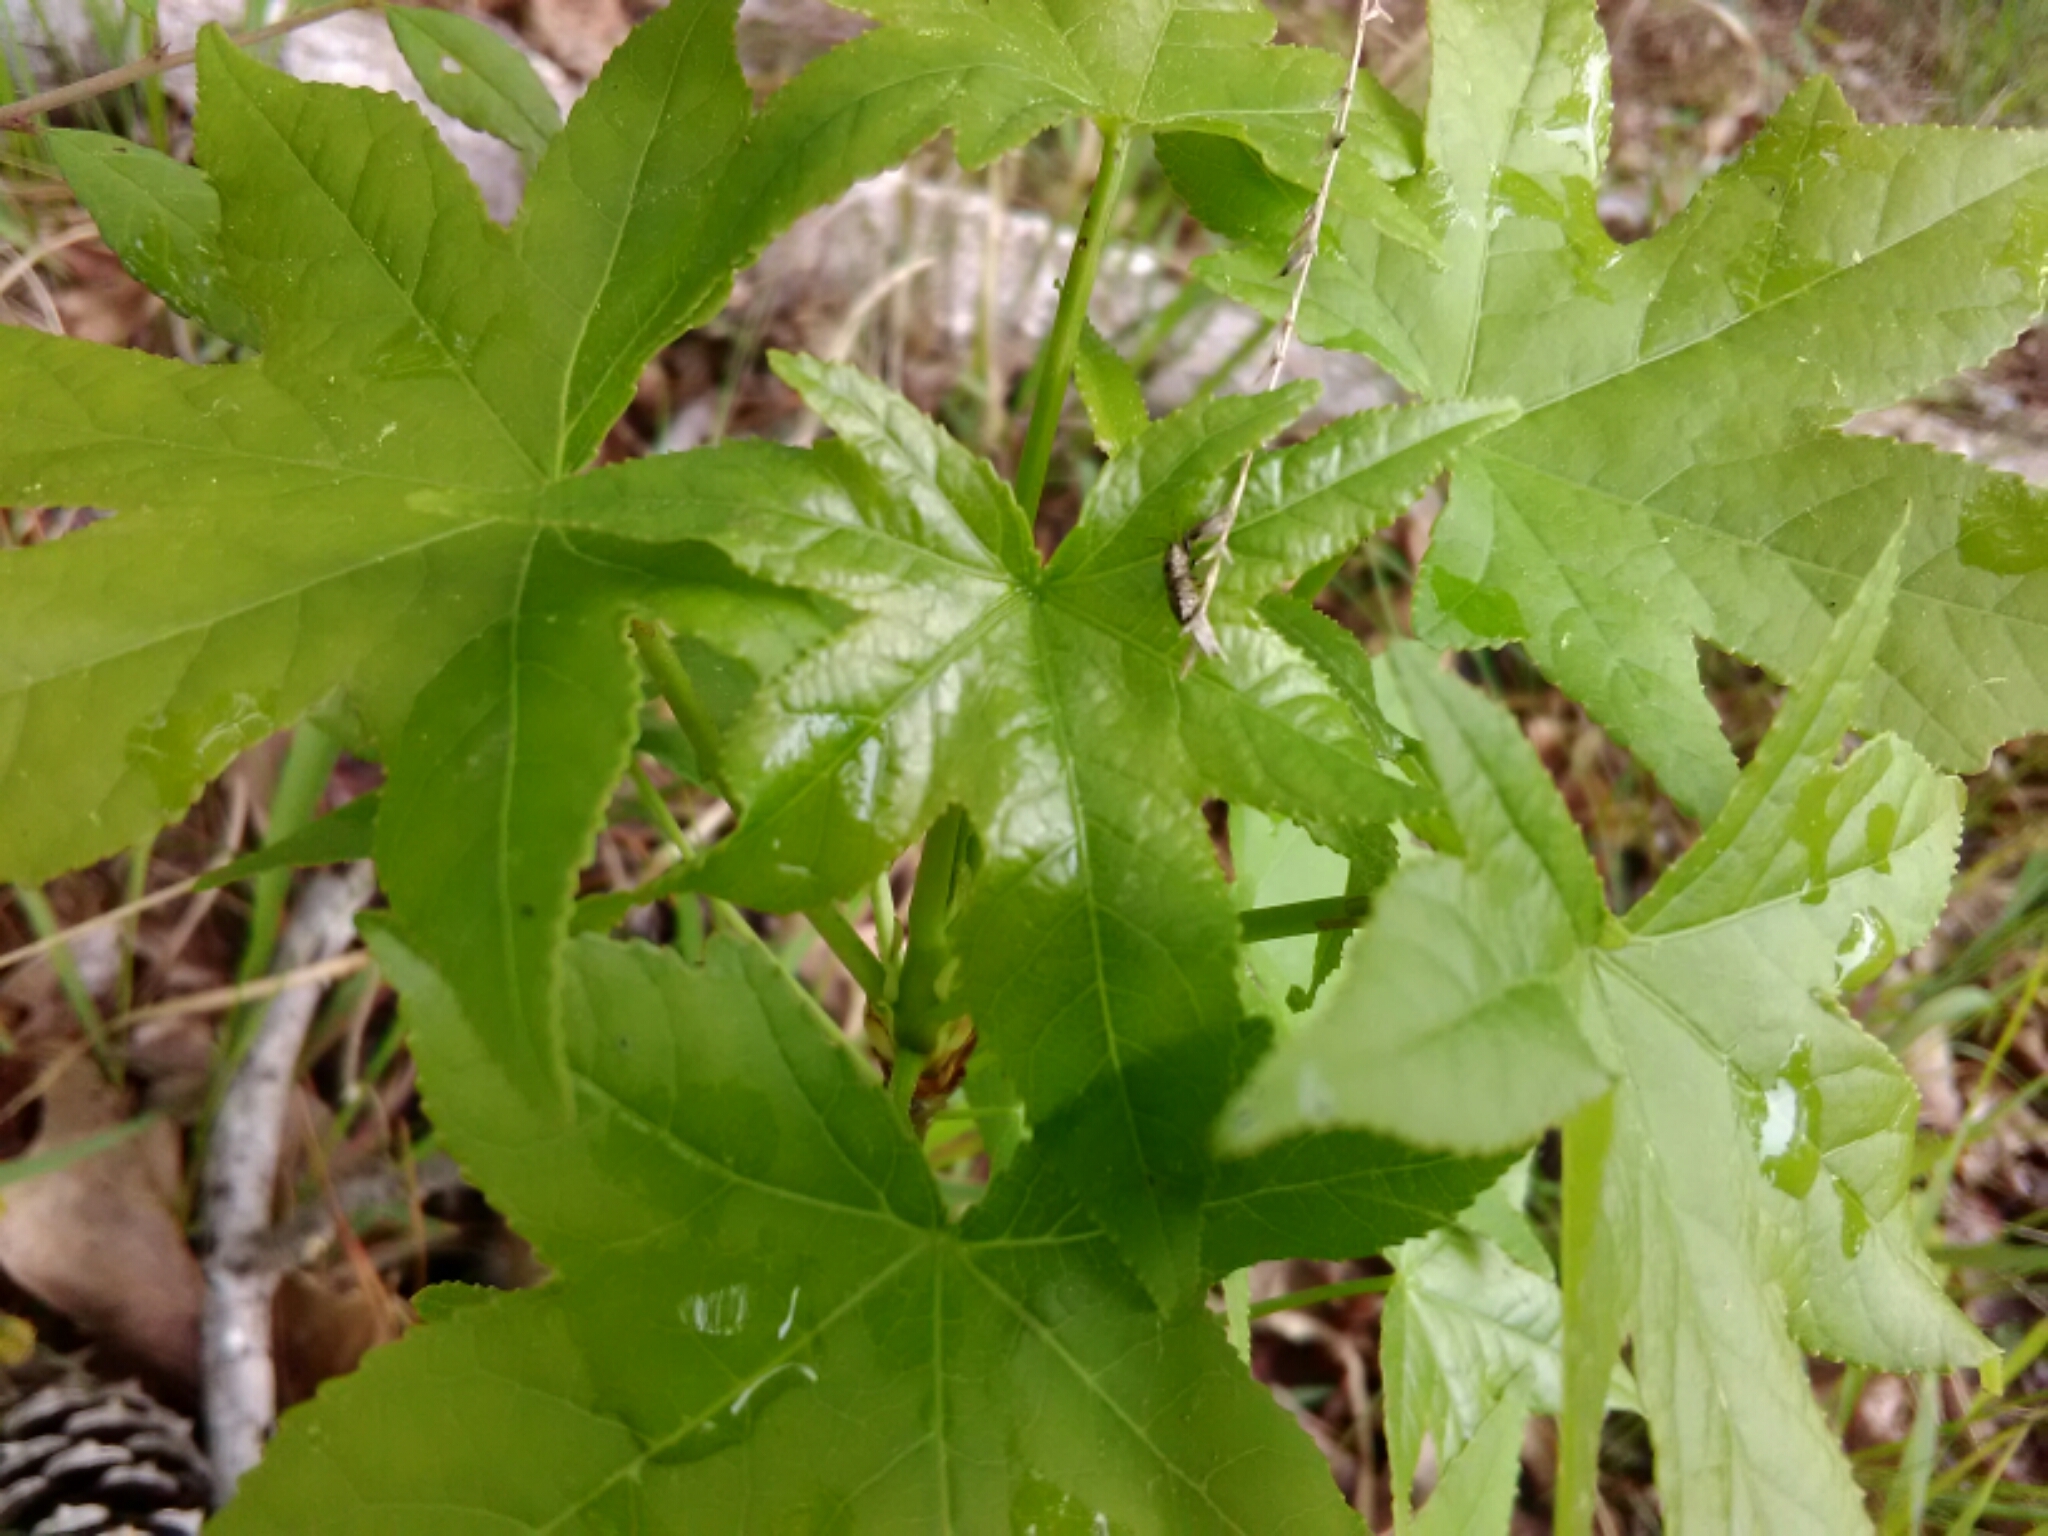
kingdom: Plantae
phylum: Tracheophyta
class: Magnoliopsida
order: Saxifragales
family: Altingiaceae
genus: Liquidambar
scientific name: Liquidambar styraciflua
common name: Sweet gum
